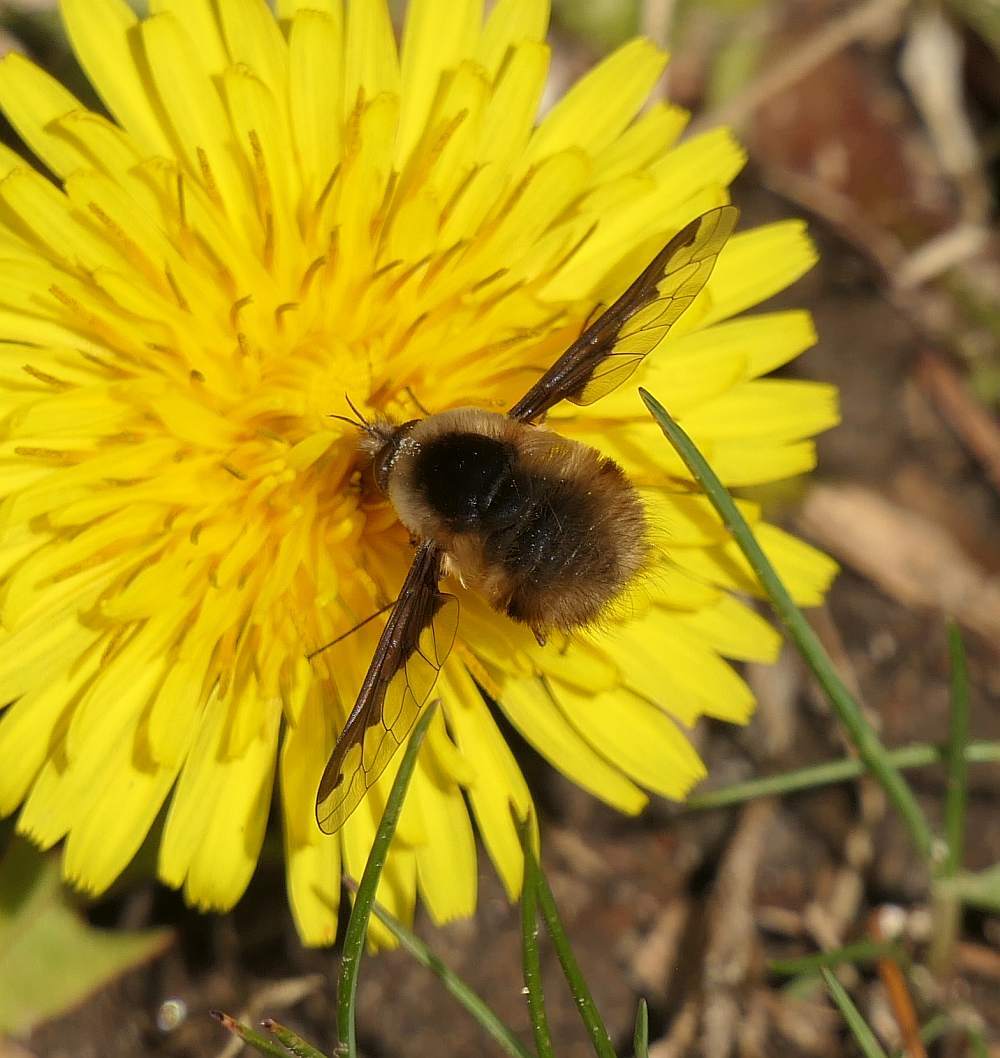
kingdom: Animalia
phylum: Arthropoda
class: Insecta
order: Diptera
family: Bombyliidae
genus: Bombylius
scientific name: Bombylius major
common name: Bee fly
